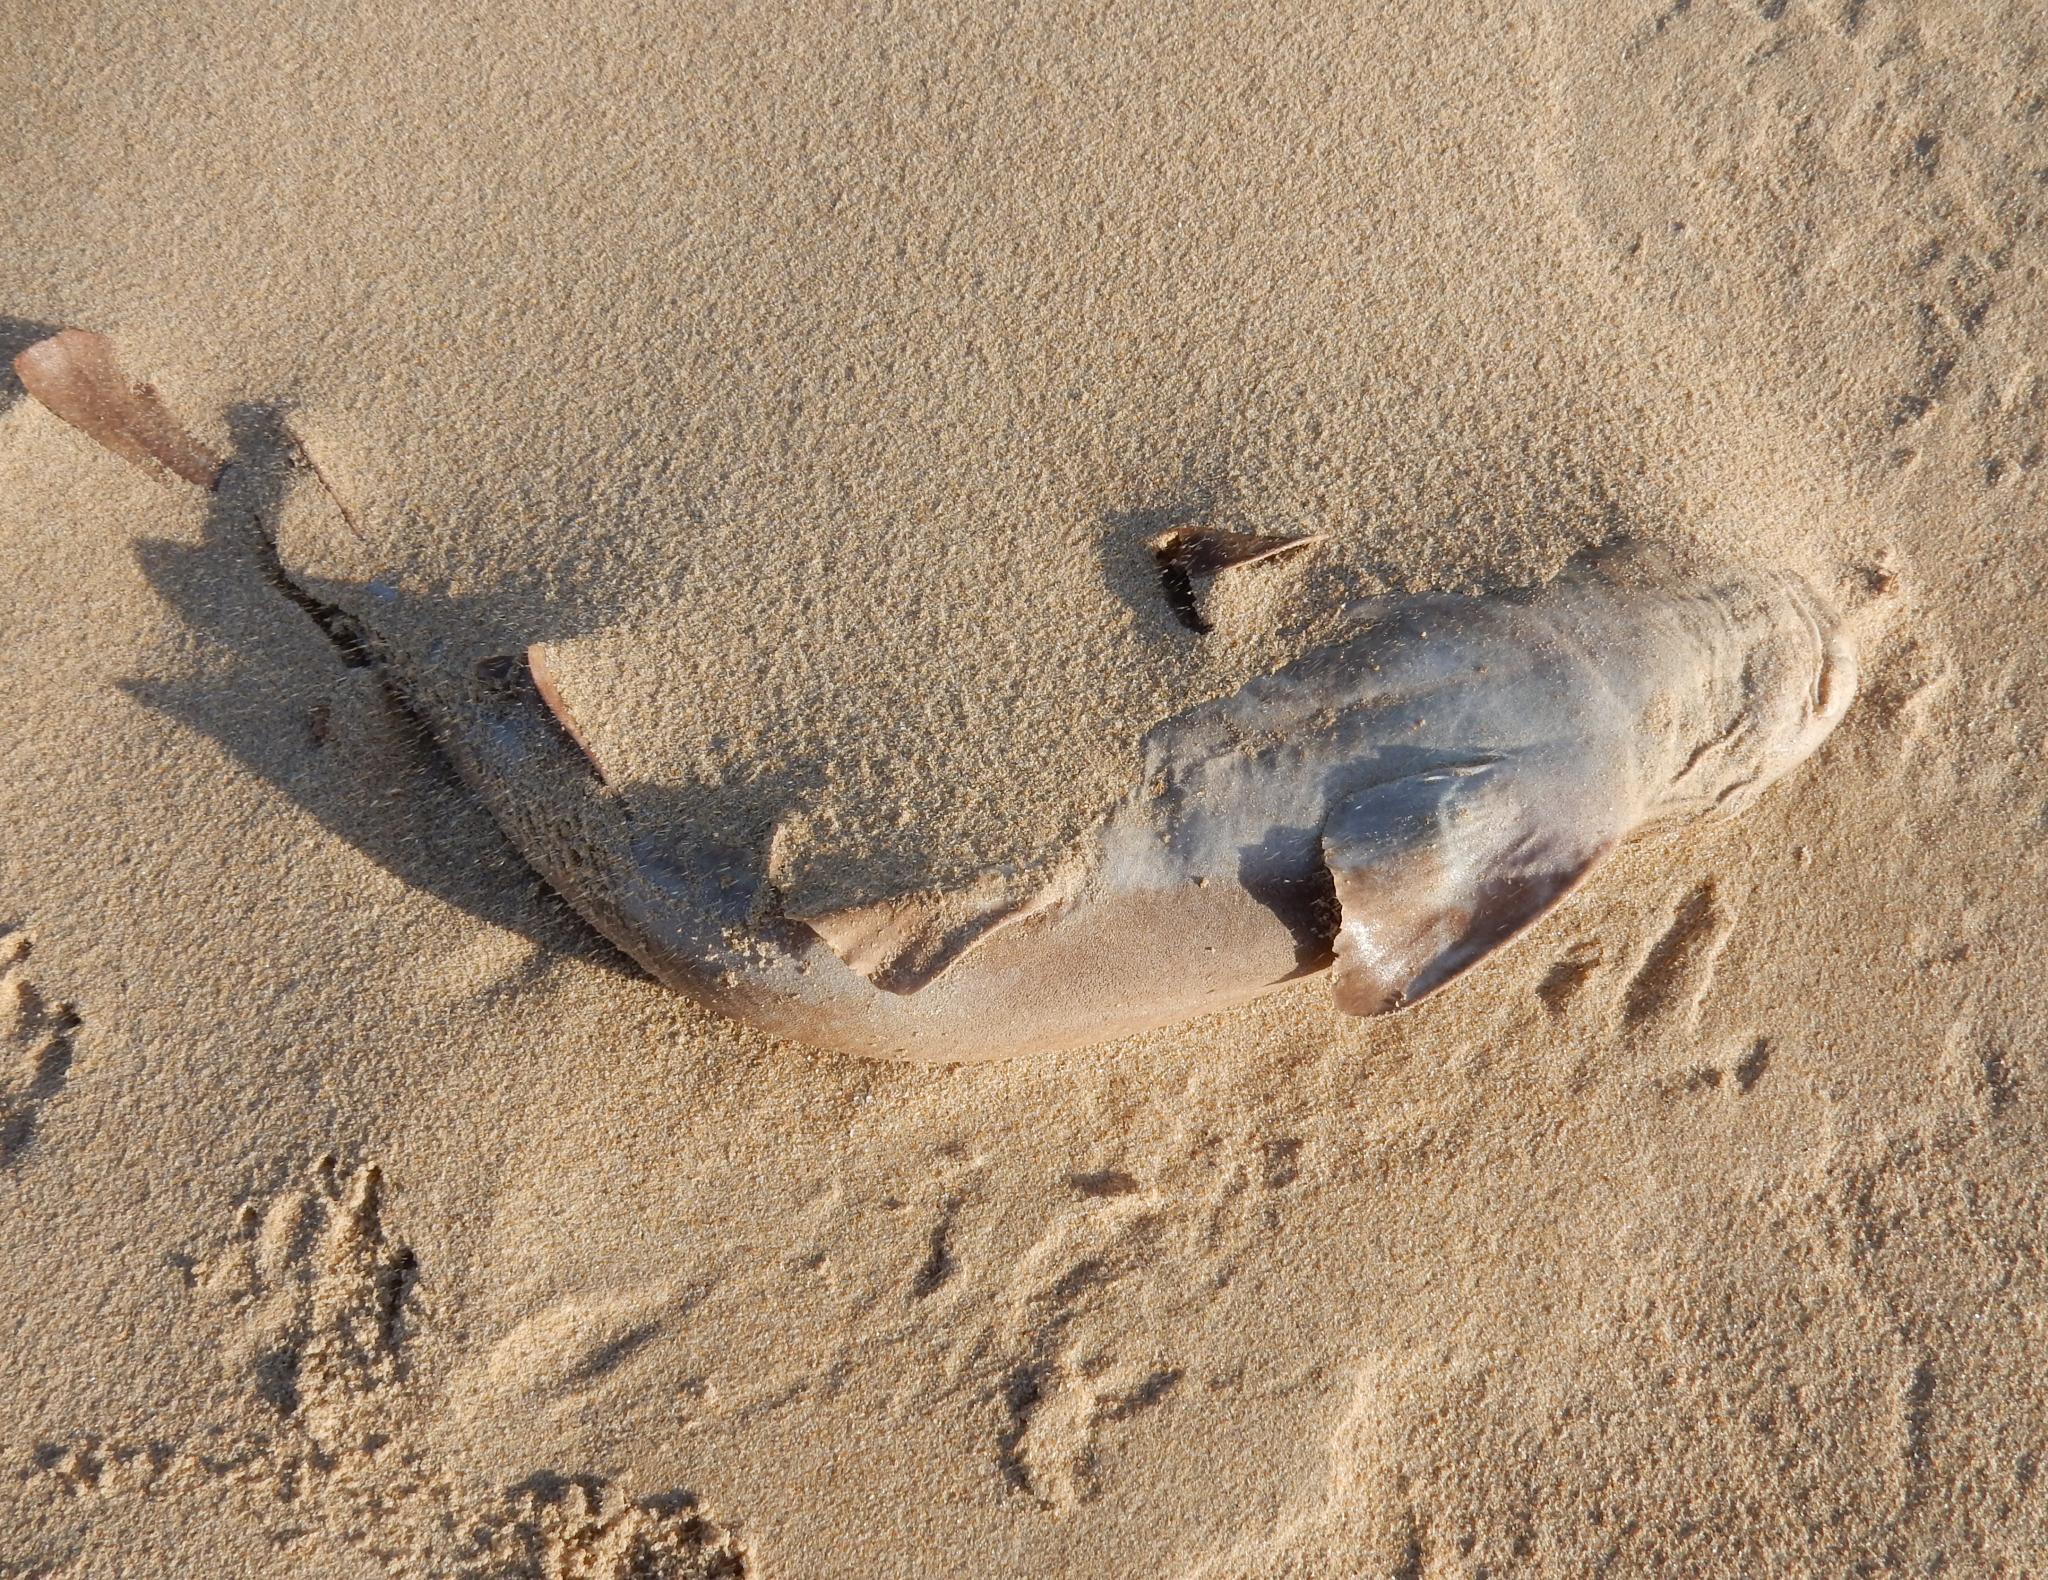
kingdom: Animalia
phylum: Chordata
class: Elasmobranchii
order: Carcharhiniformes
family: Scyliorhinidae
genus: Haploblepharus
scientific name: Haploblepharus fuscus
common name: Brown shyshark
